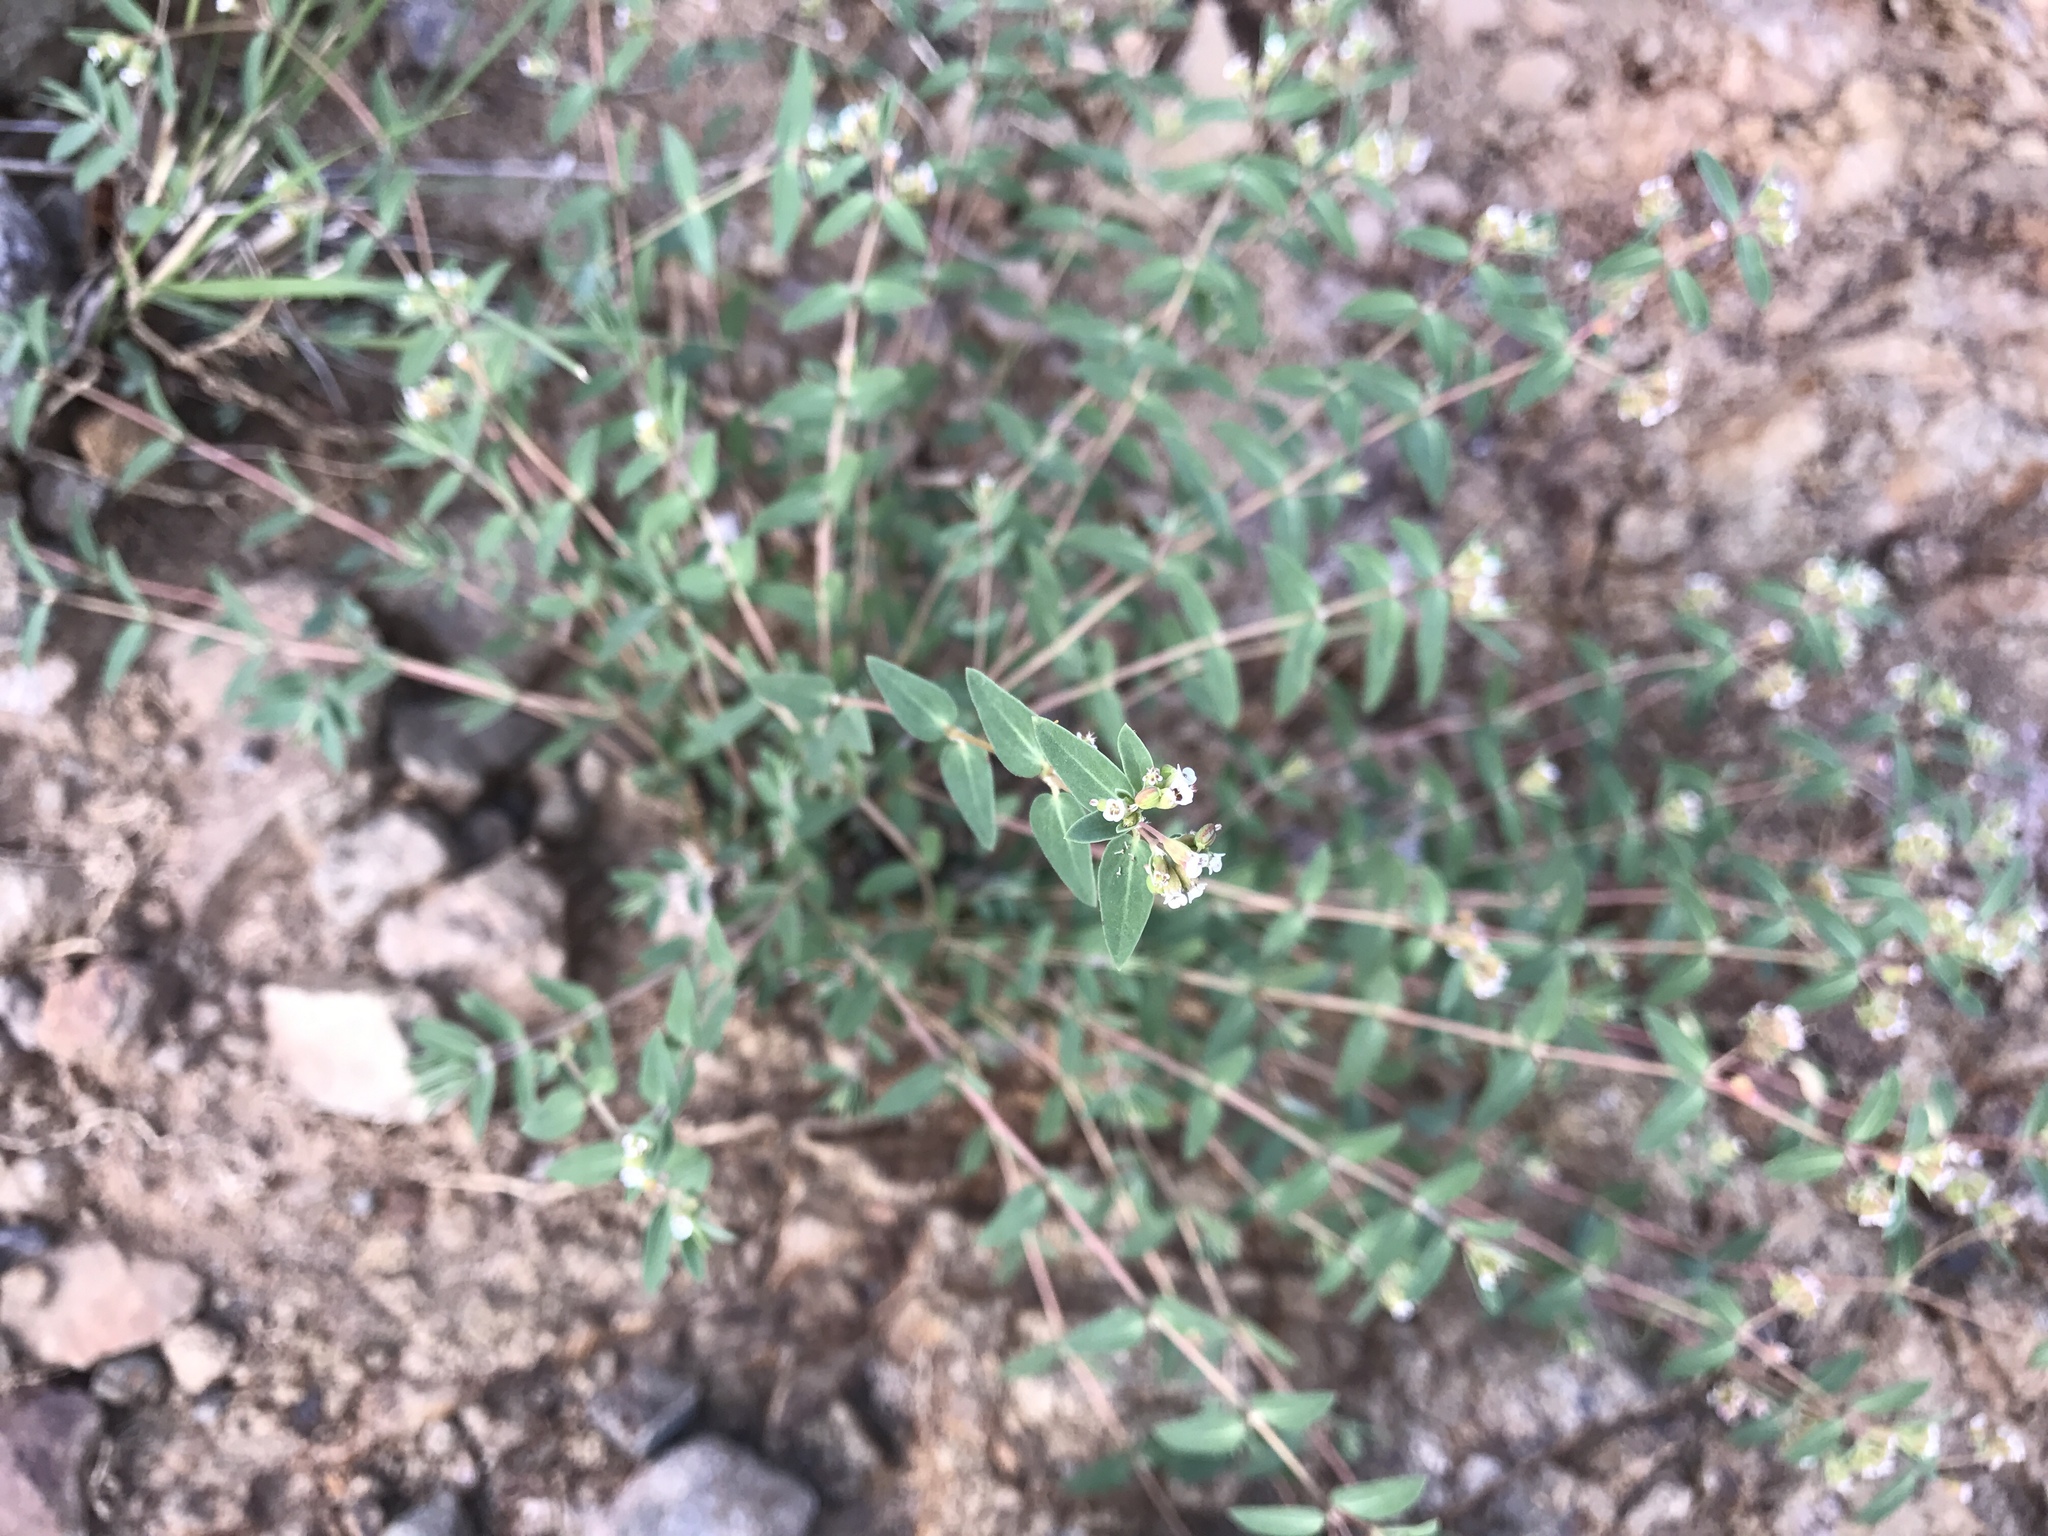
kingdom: Plantae
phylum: Tracheophyta
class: Magnoliopsida
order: Malpighiales
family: Euphorbiaceae
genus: Euphorbia
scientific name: Euphorbia capitellata
